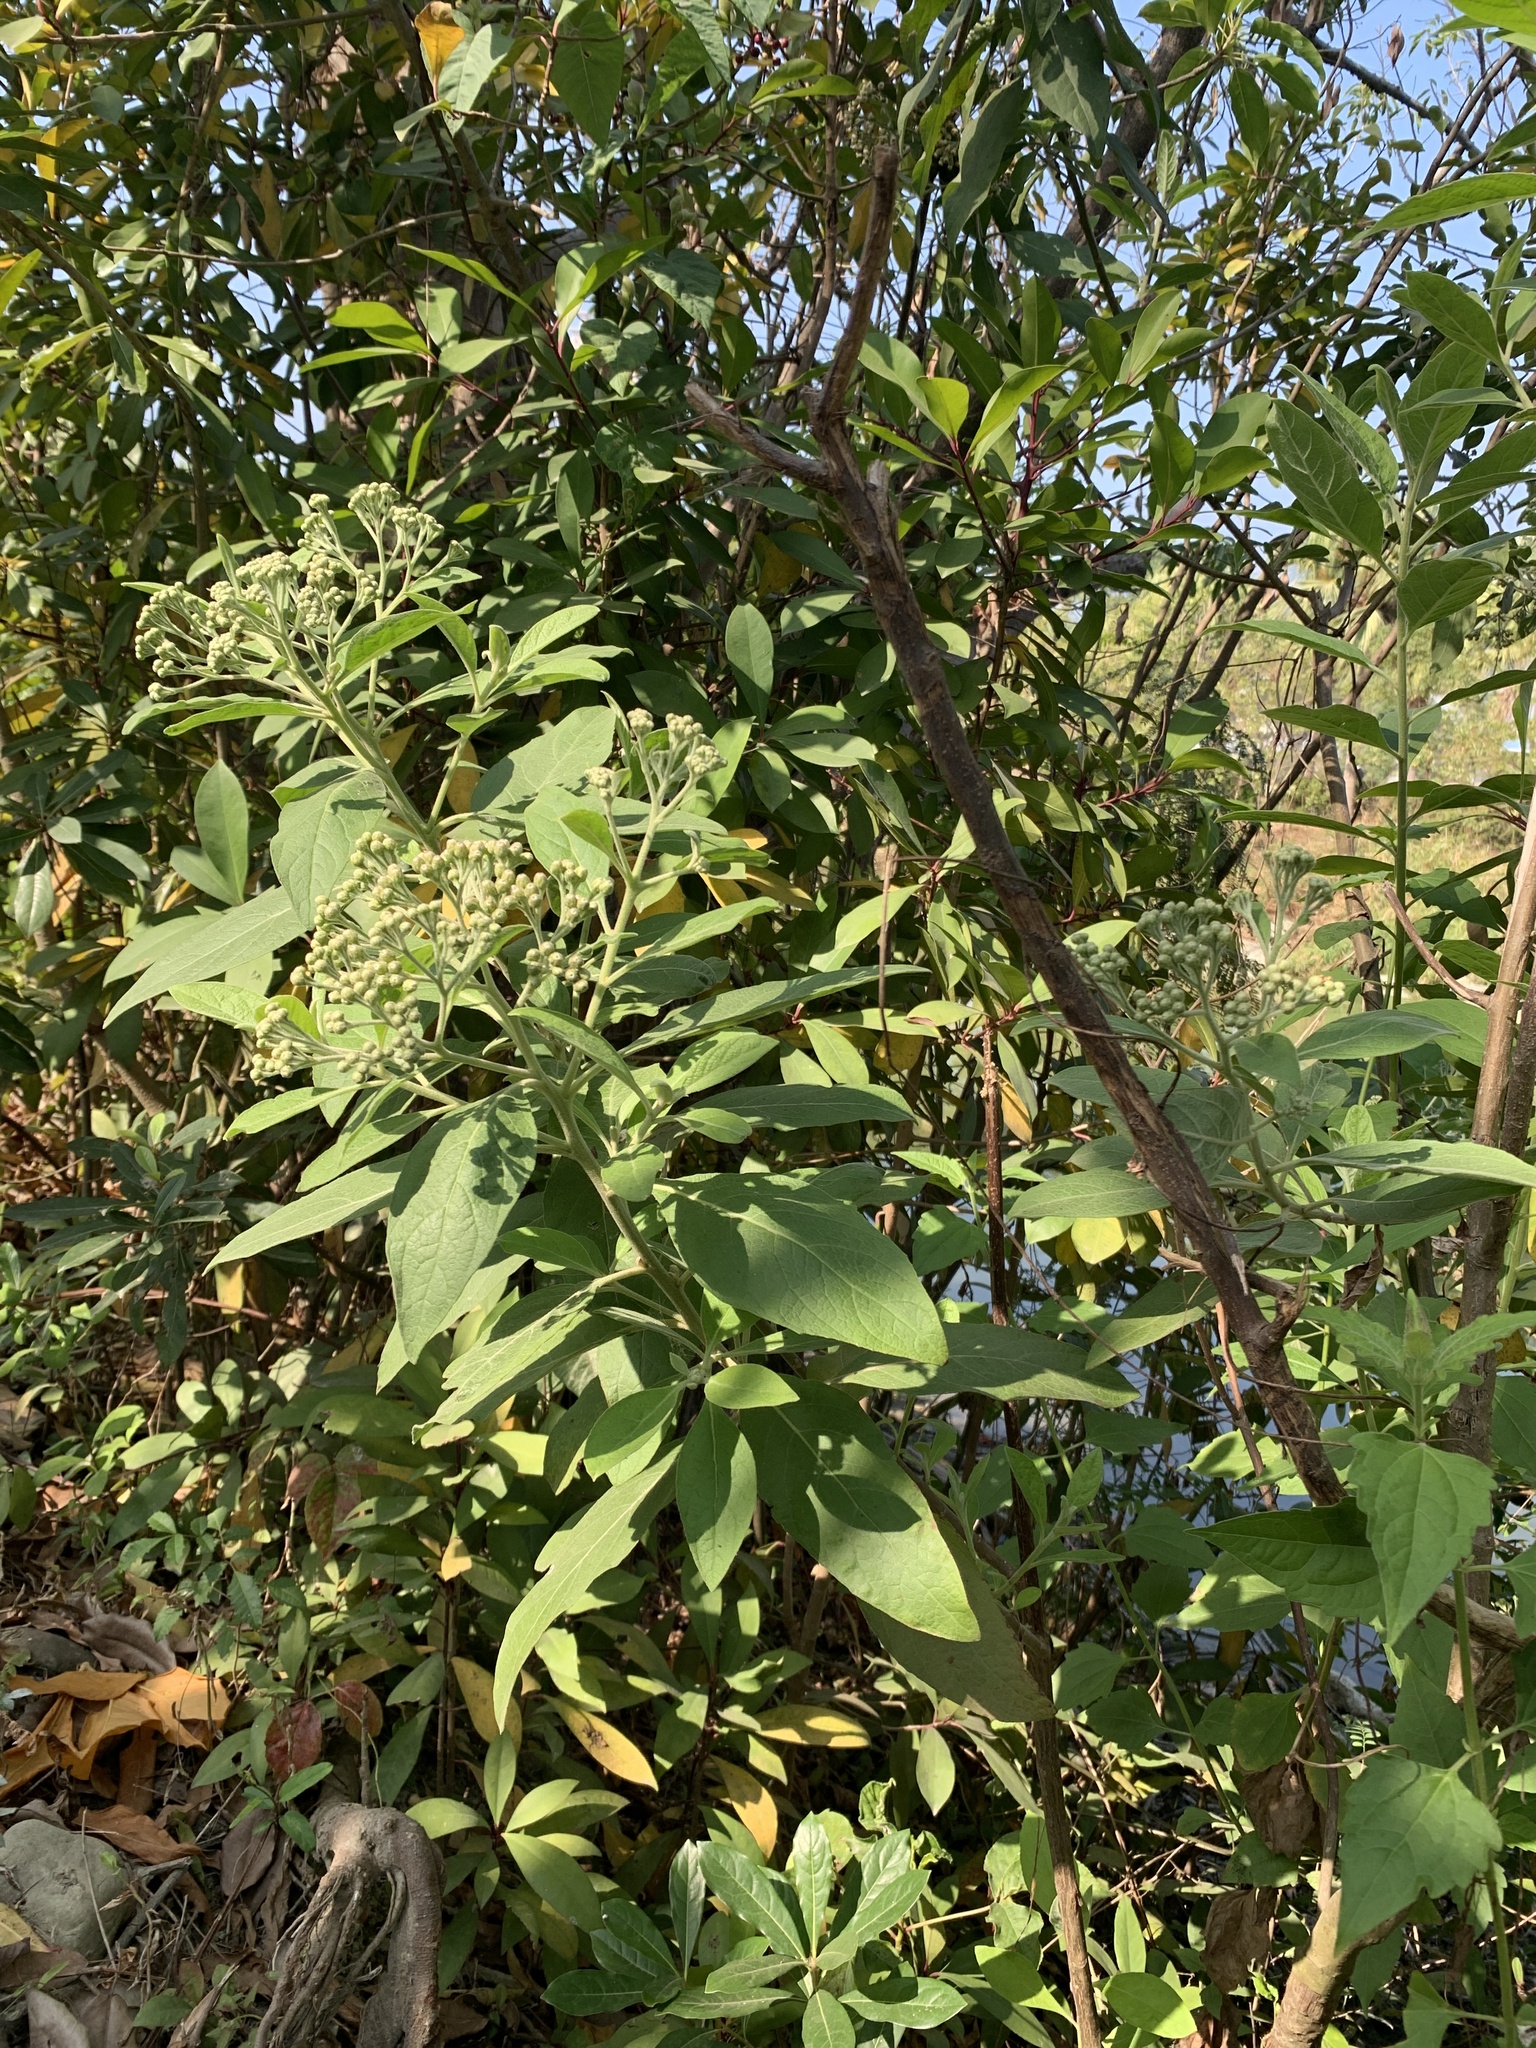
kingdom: Plantae
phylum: Tracheophyta
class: Magnoliopsida
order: Asterales
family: Asteraceae
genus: Pluchea
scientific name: Pluchea carolinensis
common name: Marsh fleabane
